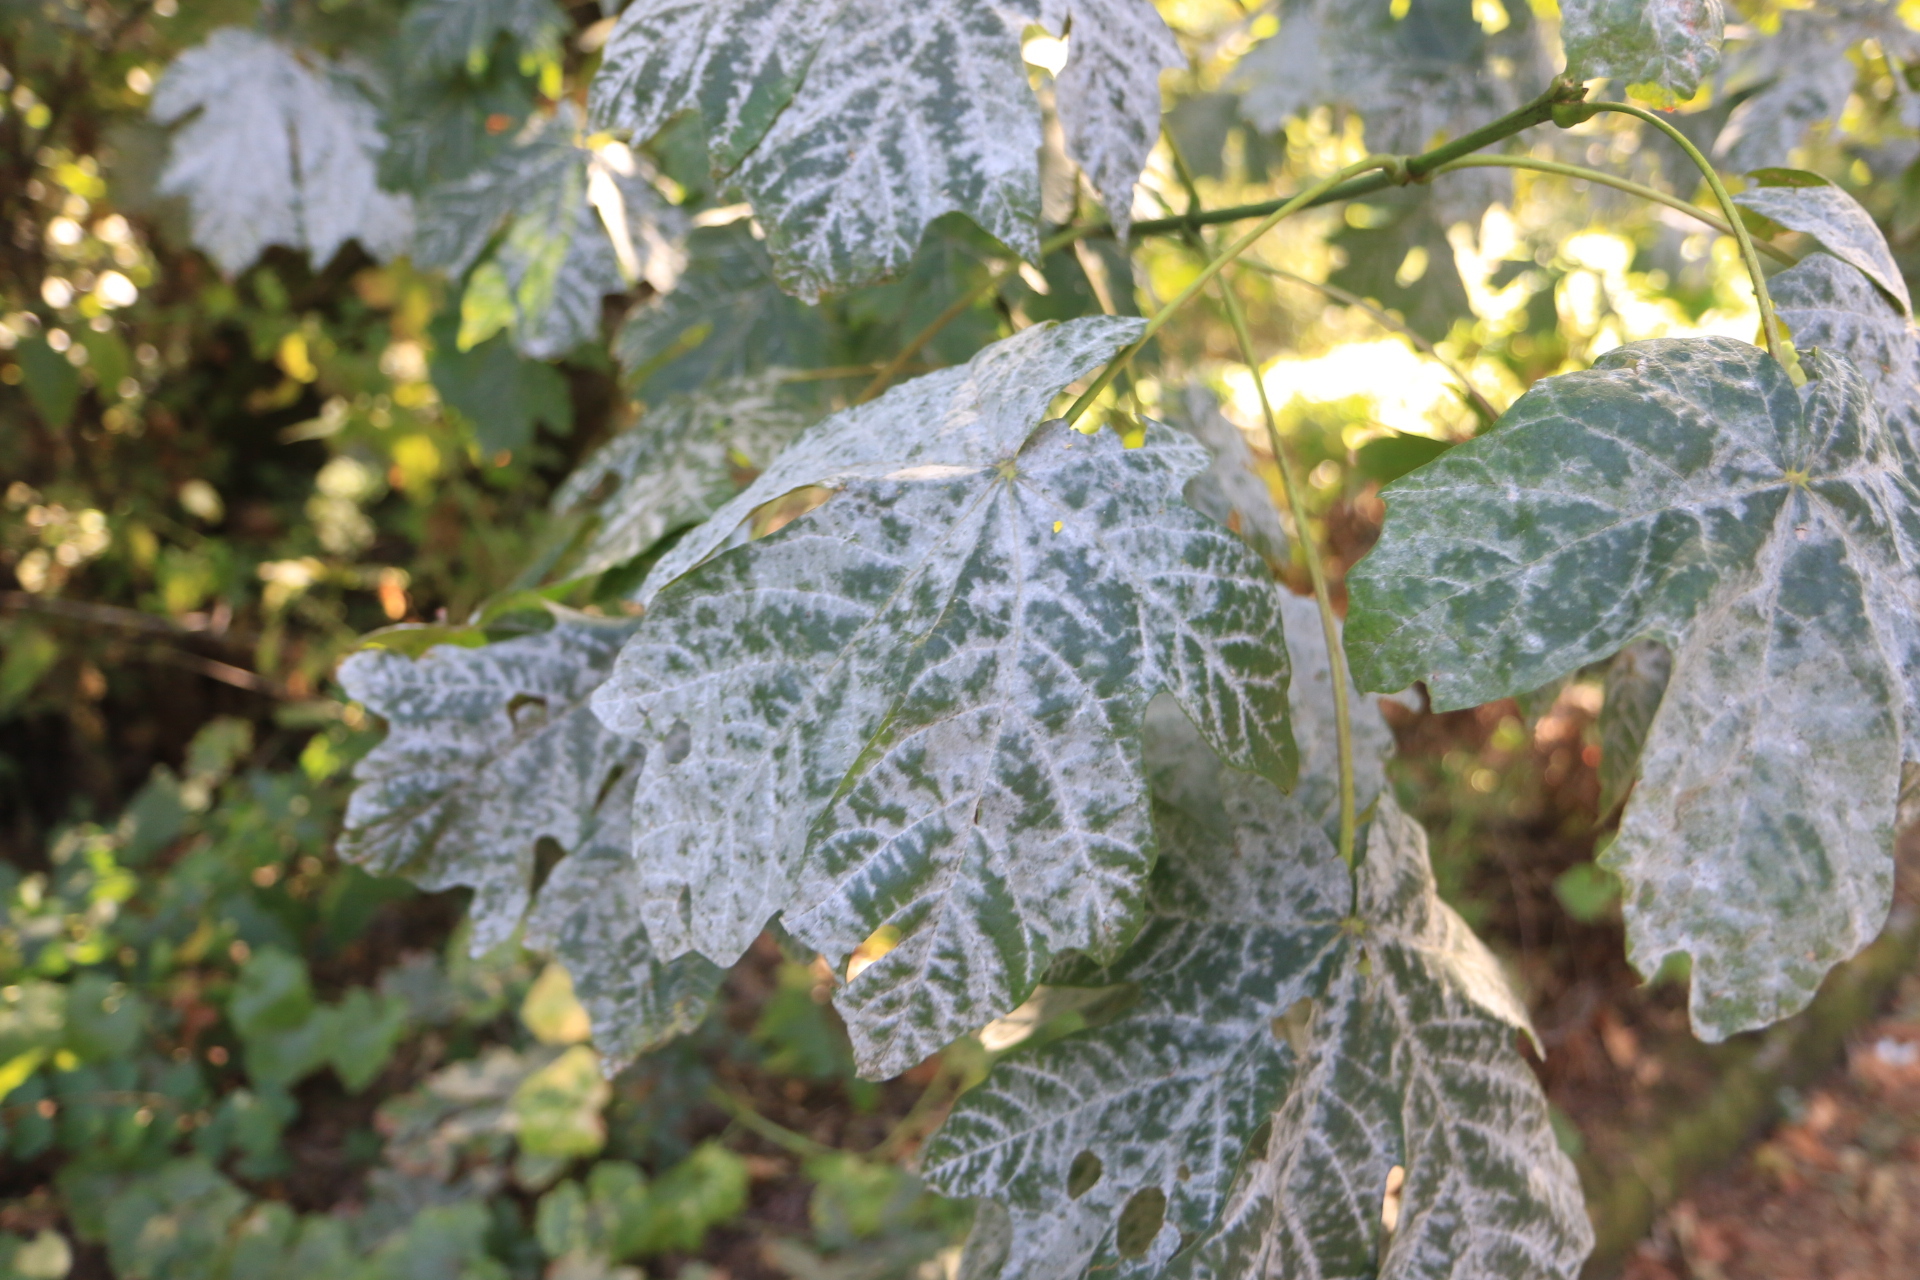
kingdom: Fungi
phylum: Ascomycota
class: Leotiomycetes
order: Helotiales
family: Erysiphaceae
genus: Sawadaea
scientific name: Sawadaea bicornis
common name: Maple mildew
